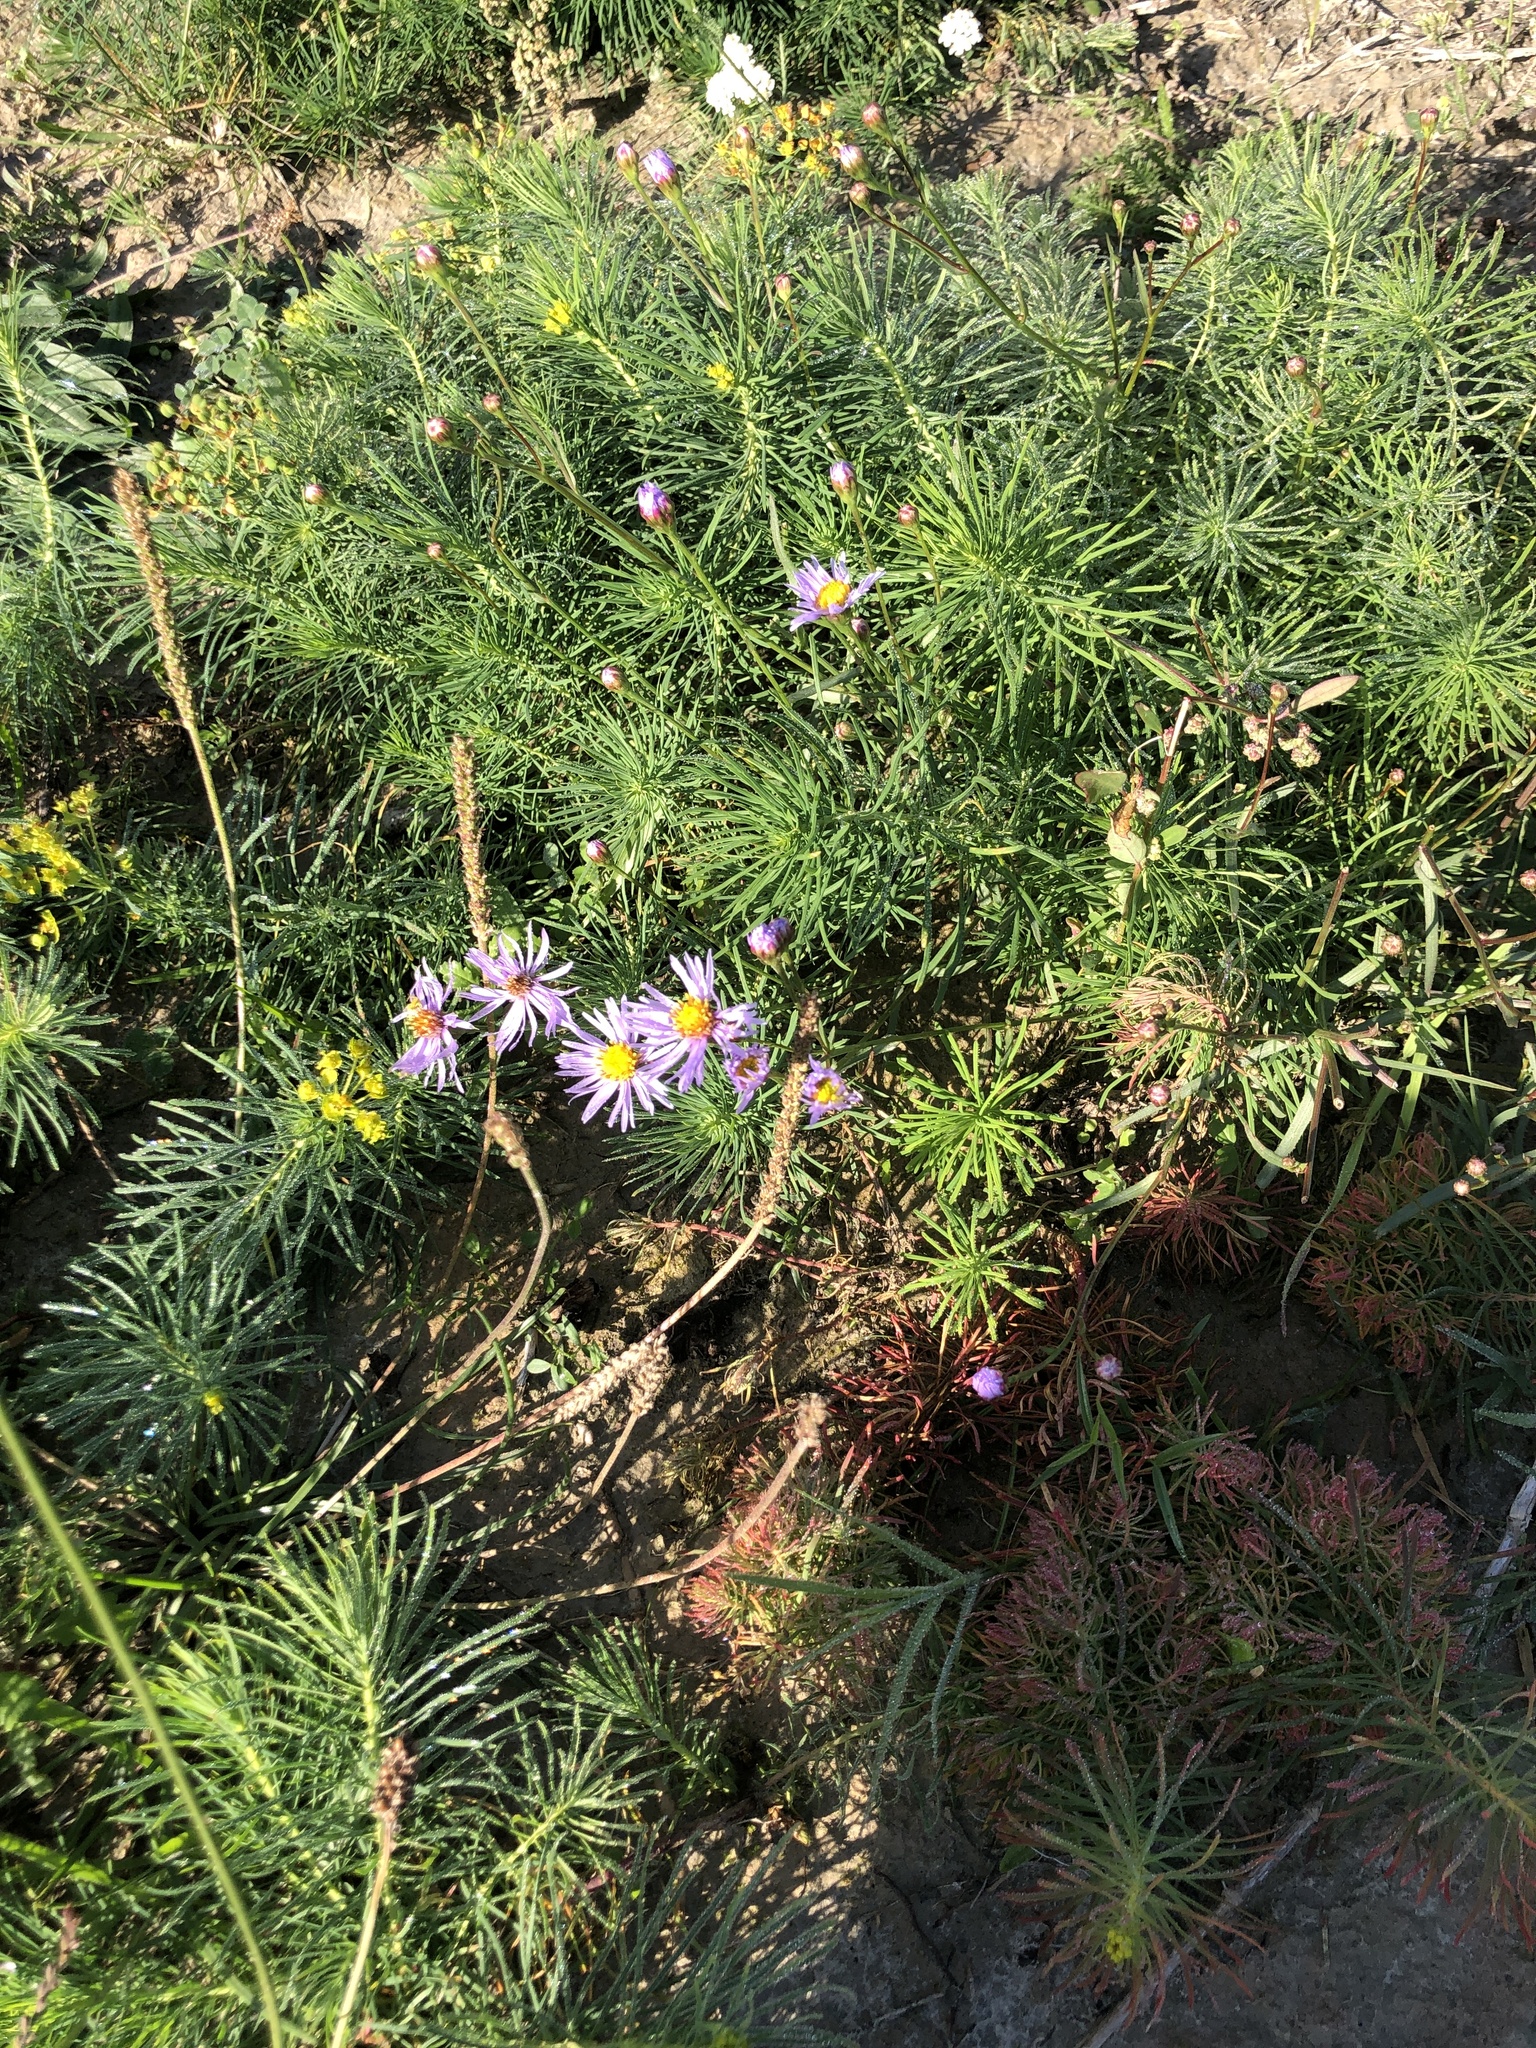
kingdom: Plantae
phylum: Tracheophyta
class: Magnoliopsida
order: Asterales
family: Asteraceae
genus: Tripolium
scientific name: Tripolium pannonicum
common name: Sea aster
